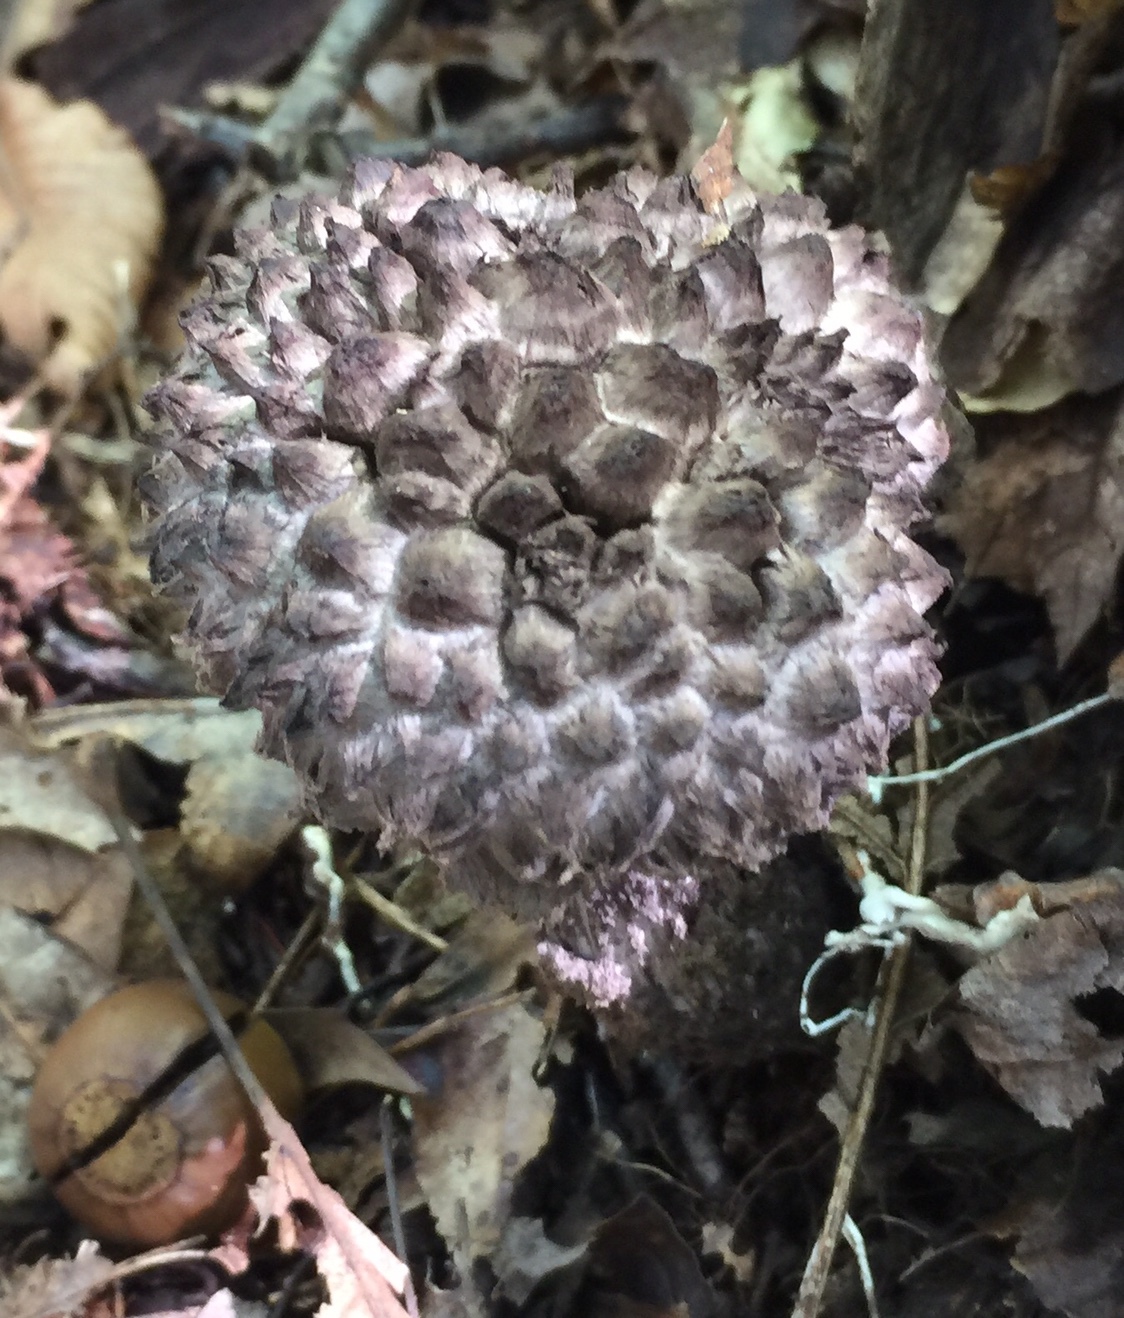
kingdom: Fungi
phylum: Basidiomycota
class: Agaricomycetes
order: Boletales
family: Boletaceae
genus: Strobilomyces
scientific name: Strobilomyces strobilaceus
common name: Old man of the woods
